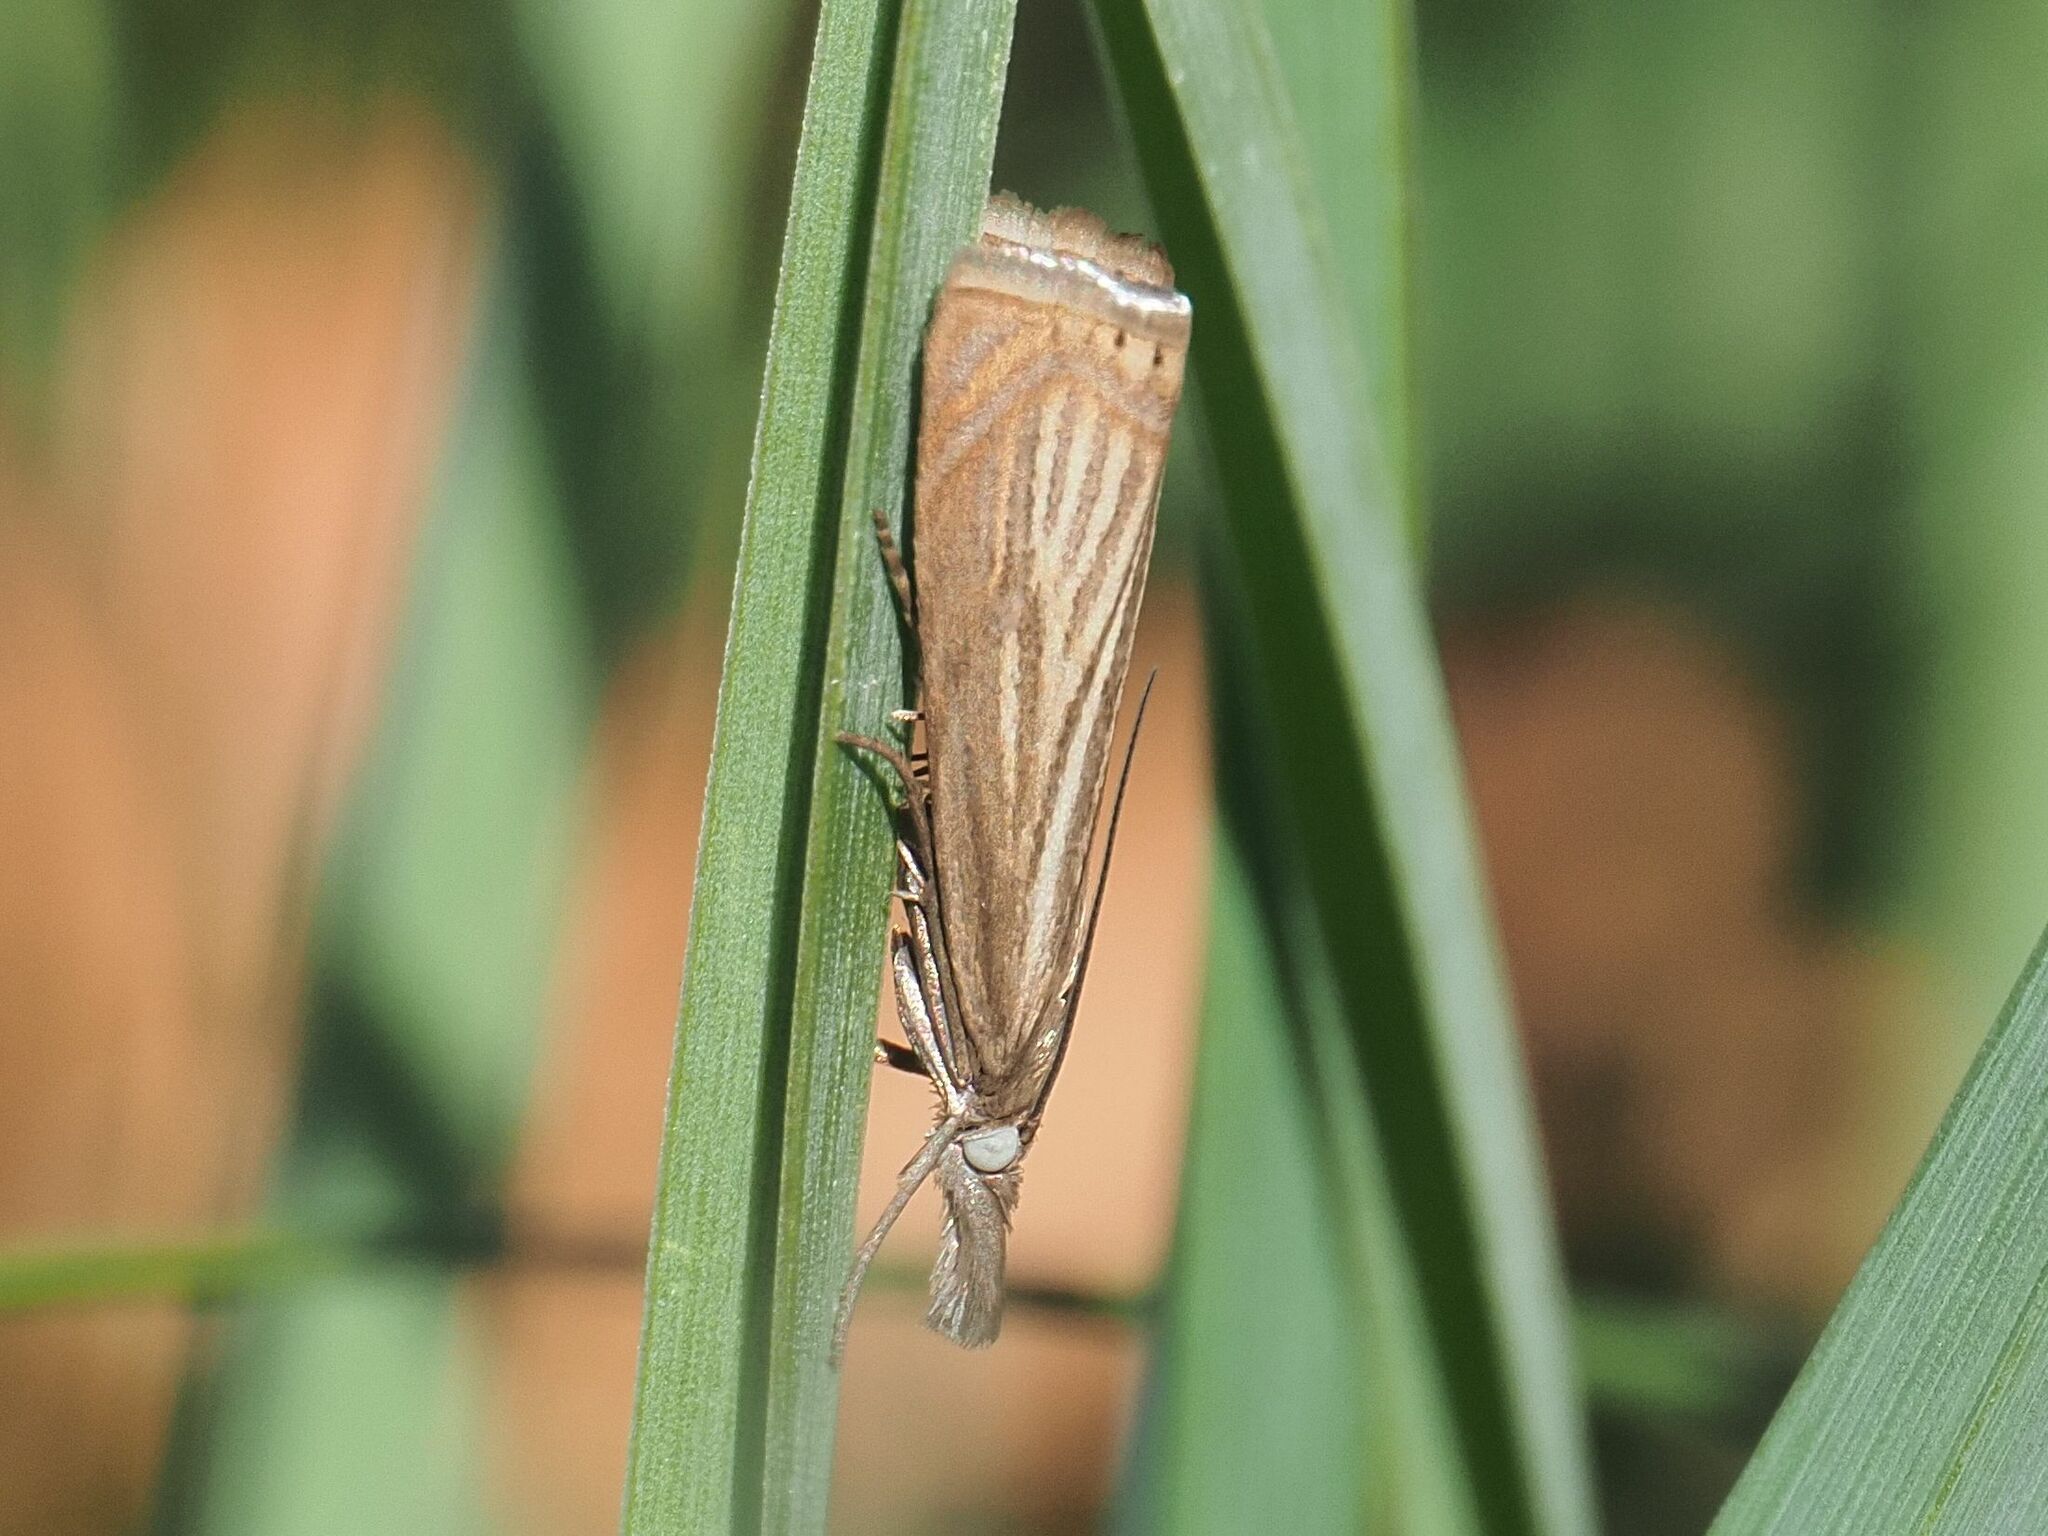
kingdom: Animalia
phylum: Arthropoda
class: Insecta
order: Lepidoptera
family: Crambidae
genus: Chrysoteuchia
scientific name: Chrysoteuchia culmella
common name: Garden grass-veneer
